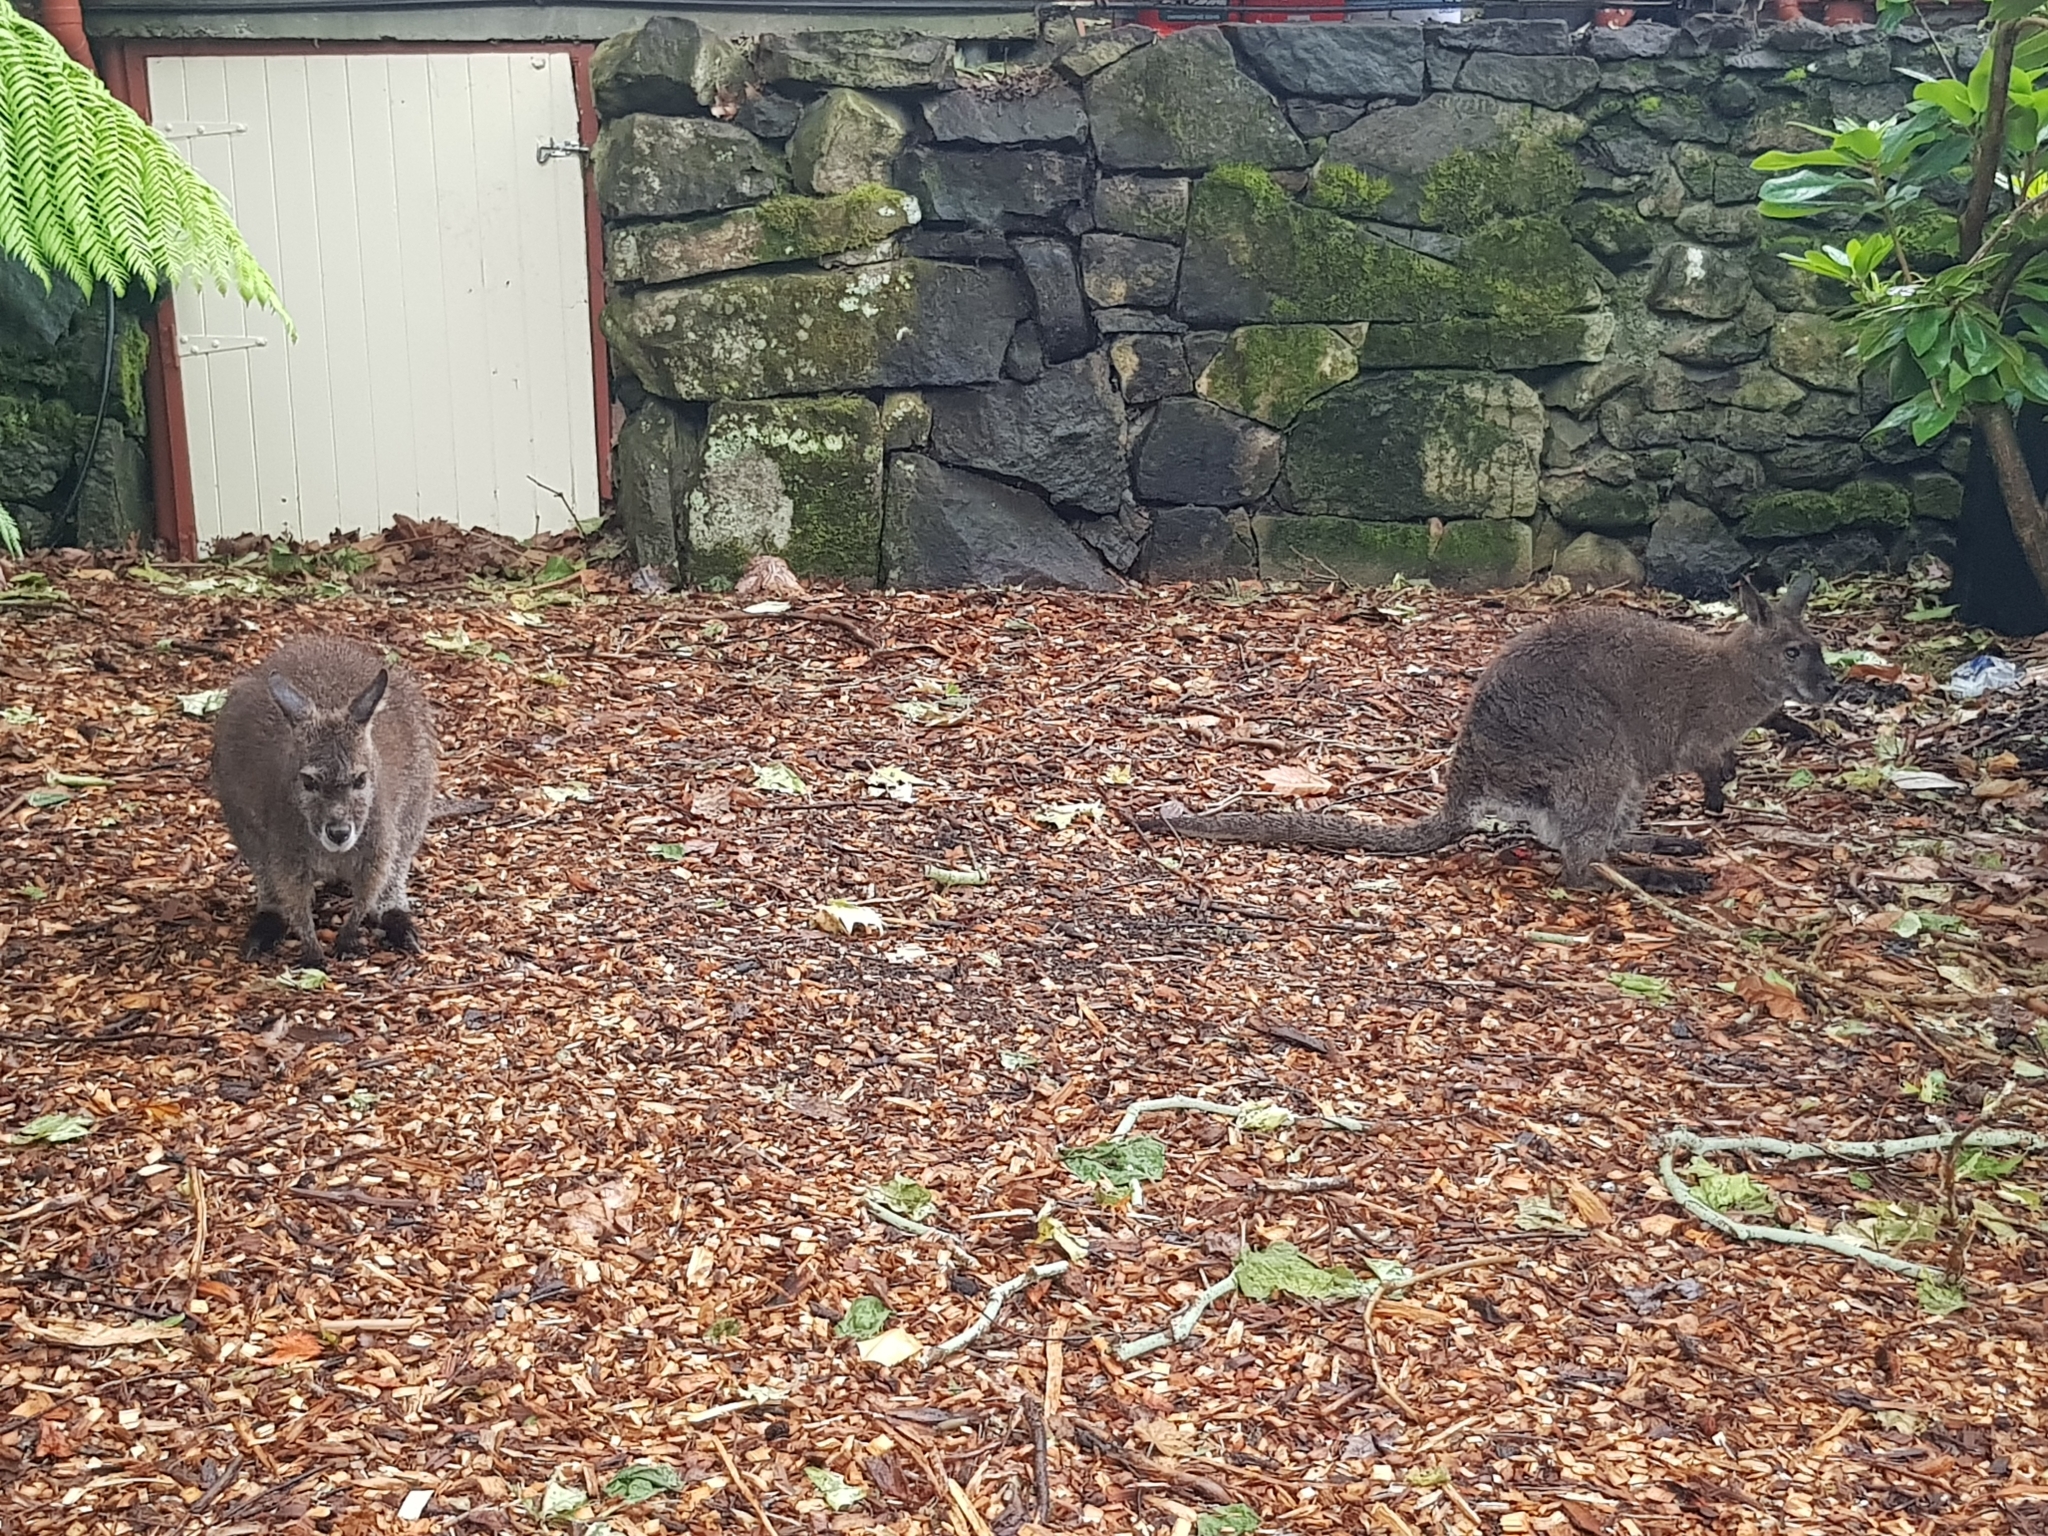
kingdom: Animalia
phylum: Chordata
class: Mammalia
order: Diprotodontia
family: Macropodidae
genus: Notamacropus
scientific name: Notamacropus rufogriseus
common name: Red-necked wallaby
